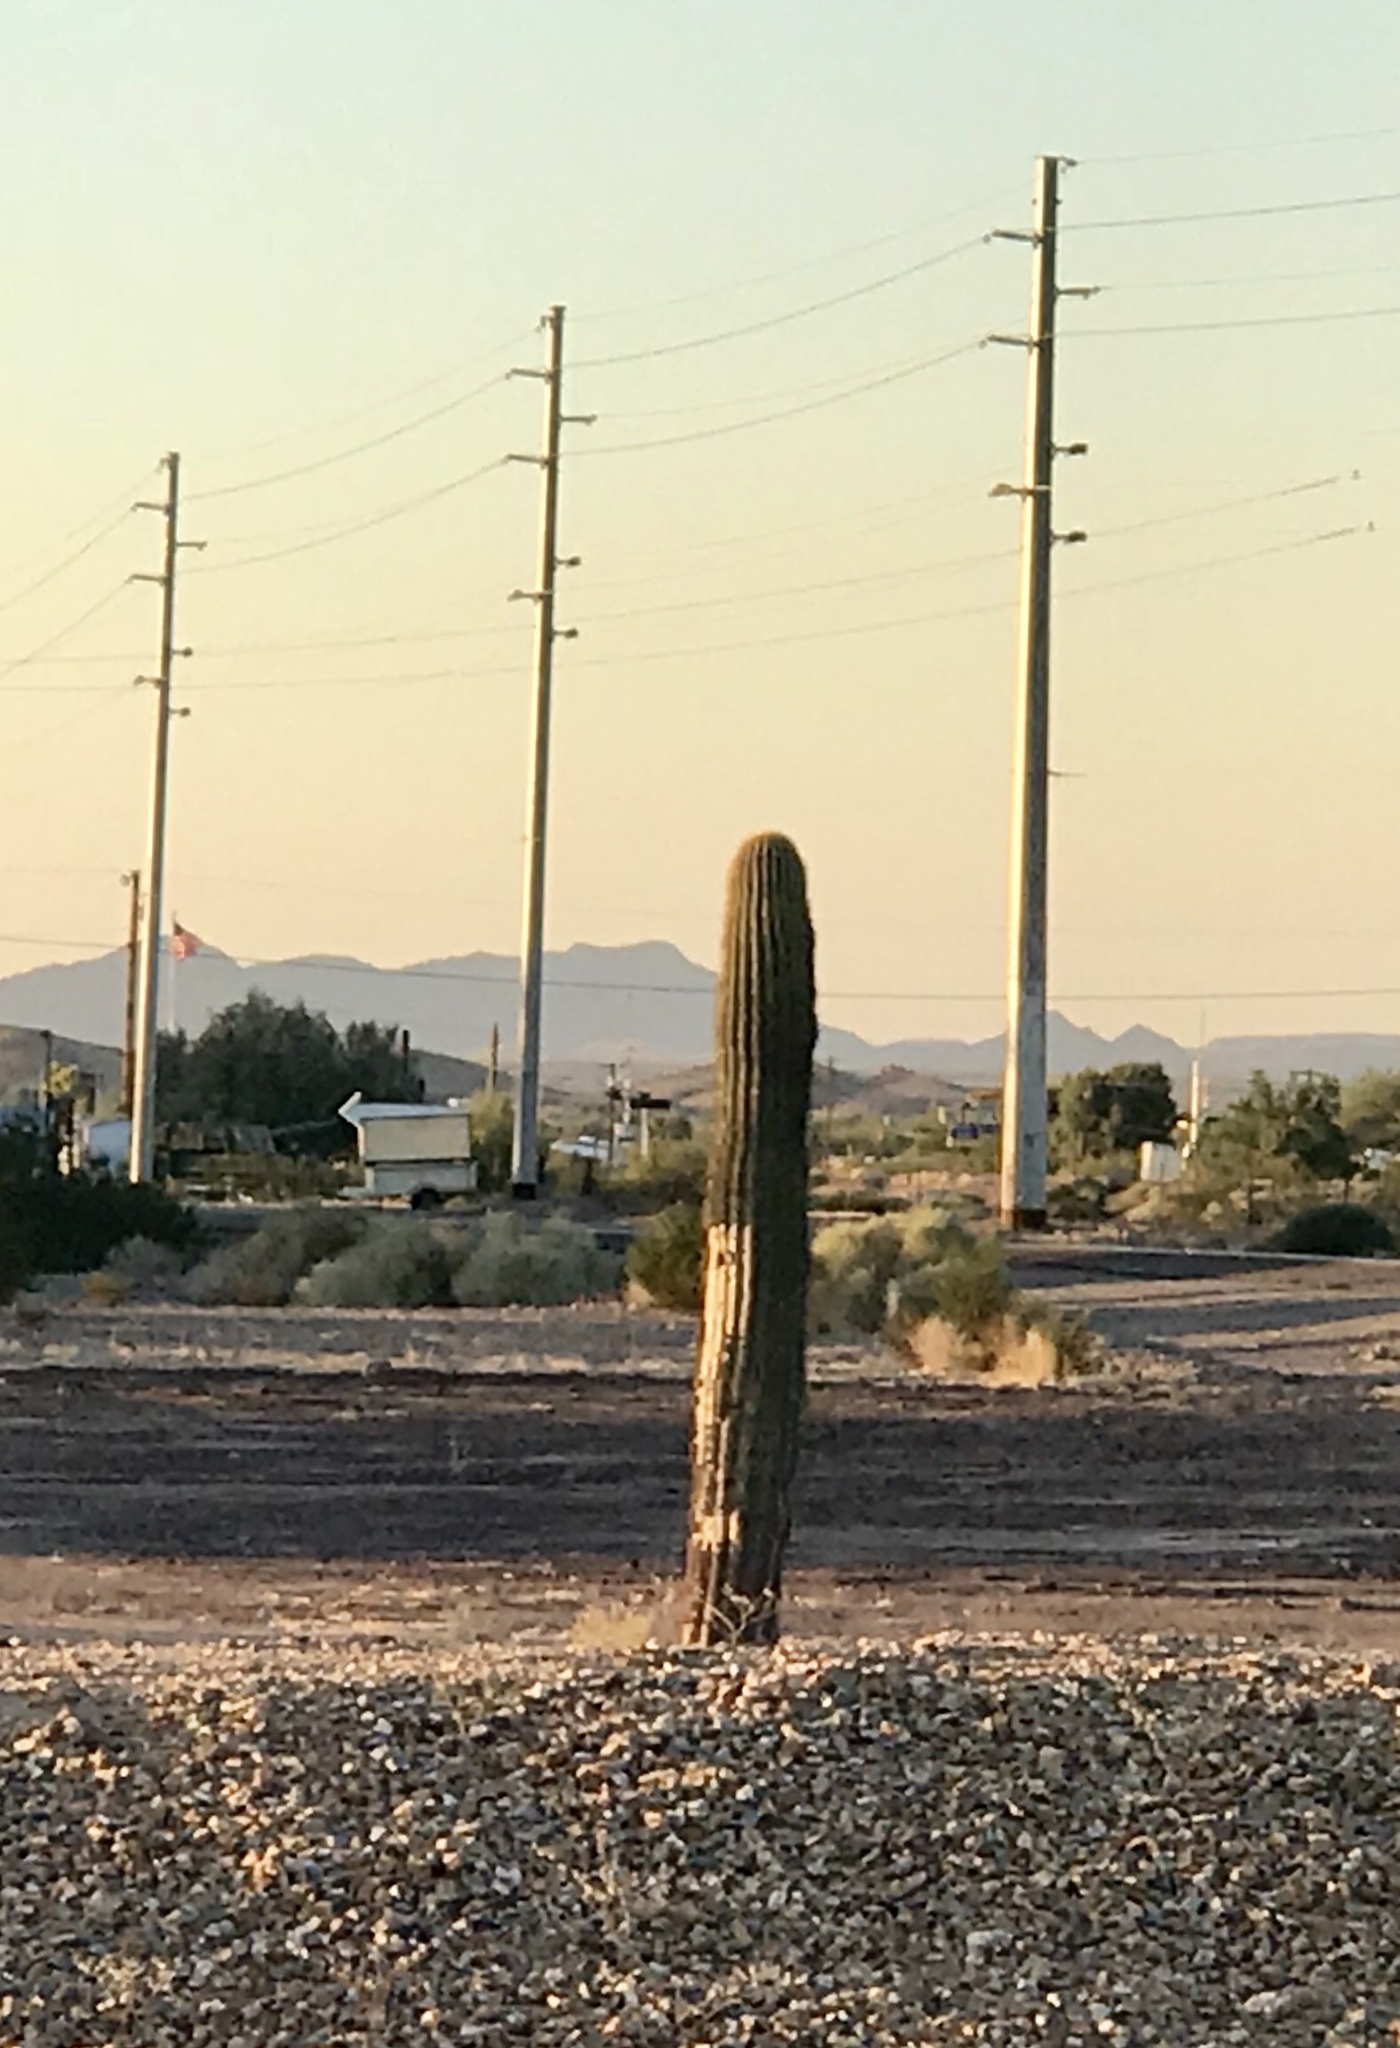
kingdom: Plantae
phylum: Tracheophyta
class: Magnoliopsida
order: Caryophyllales
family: Cactaceae
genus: Carnegiea
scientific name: Carnegiea gigantea
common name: Saguaro
